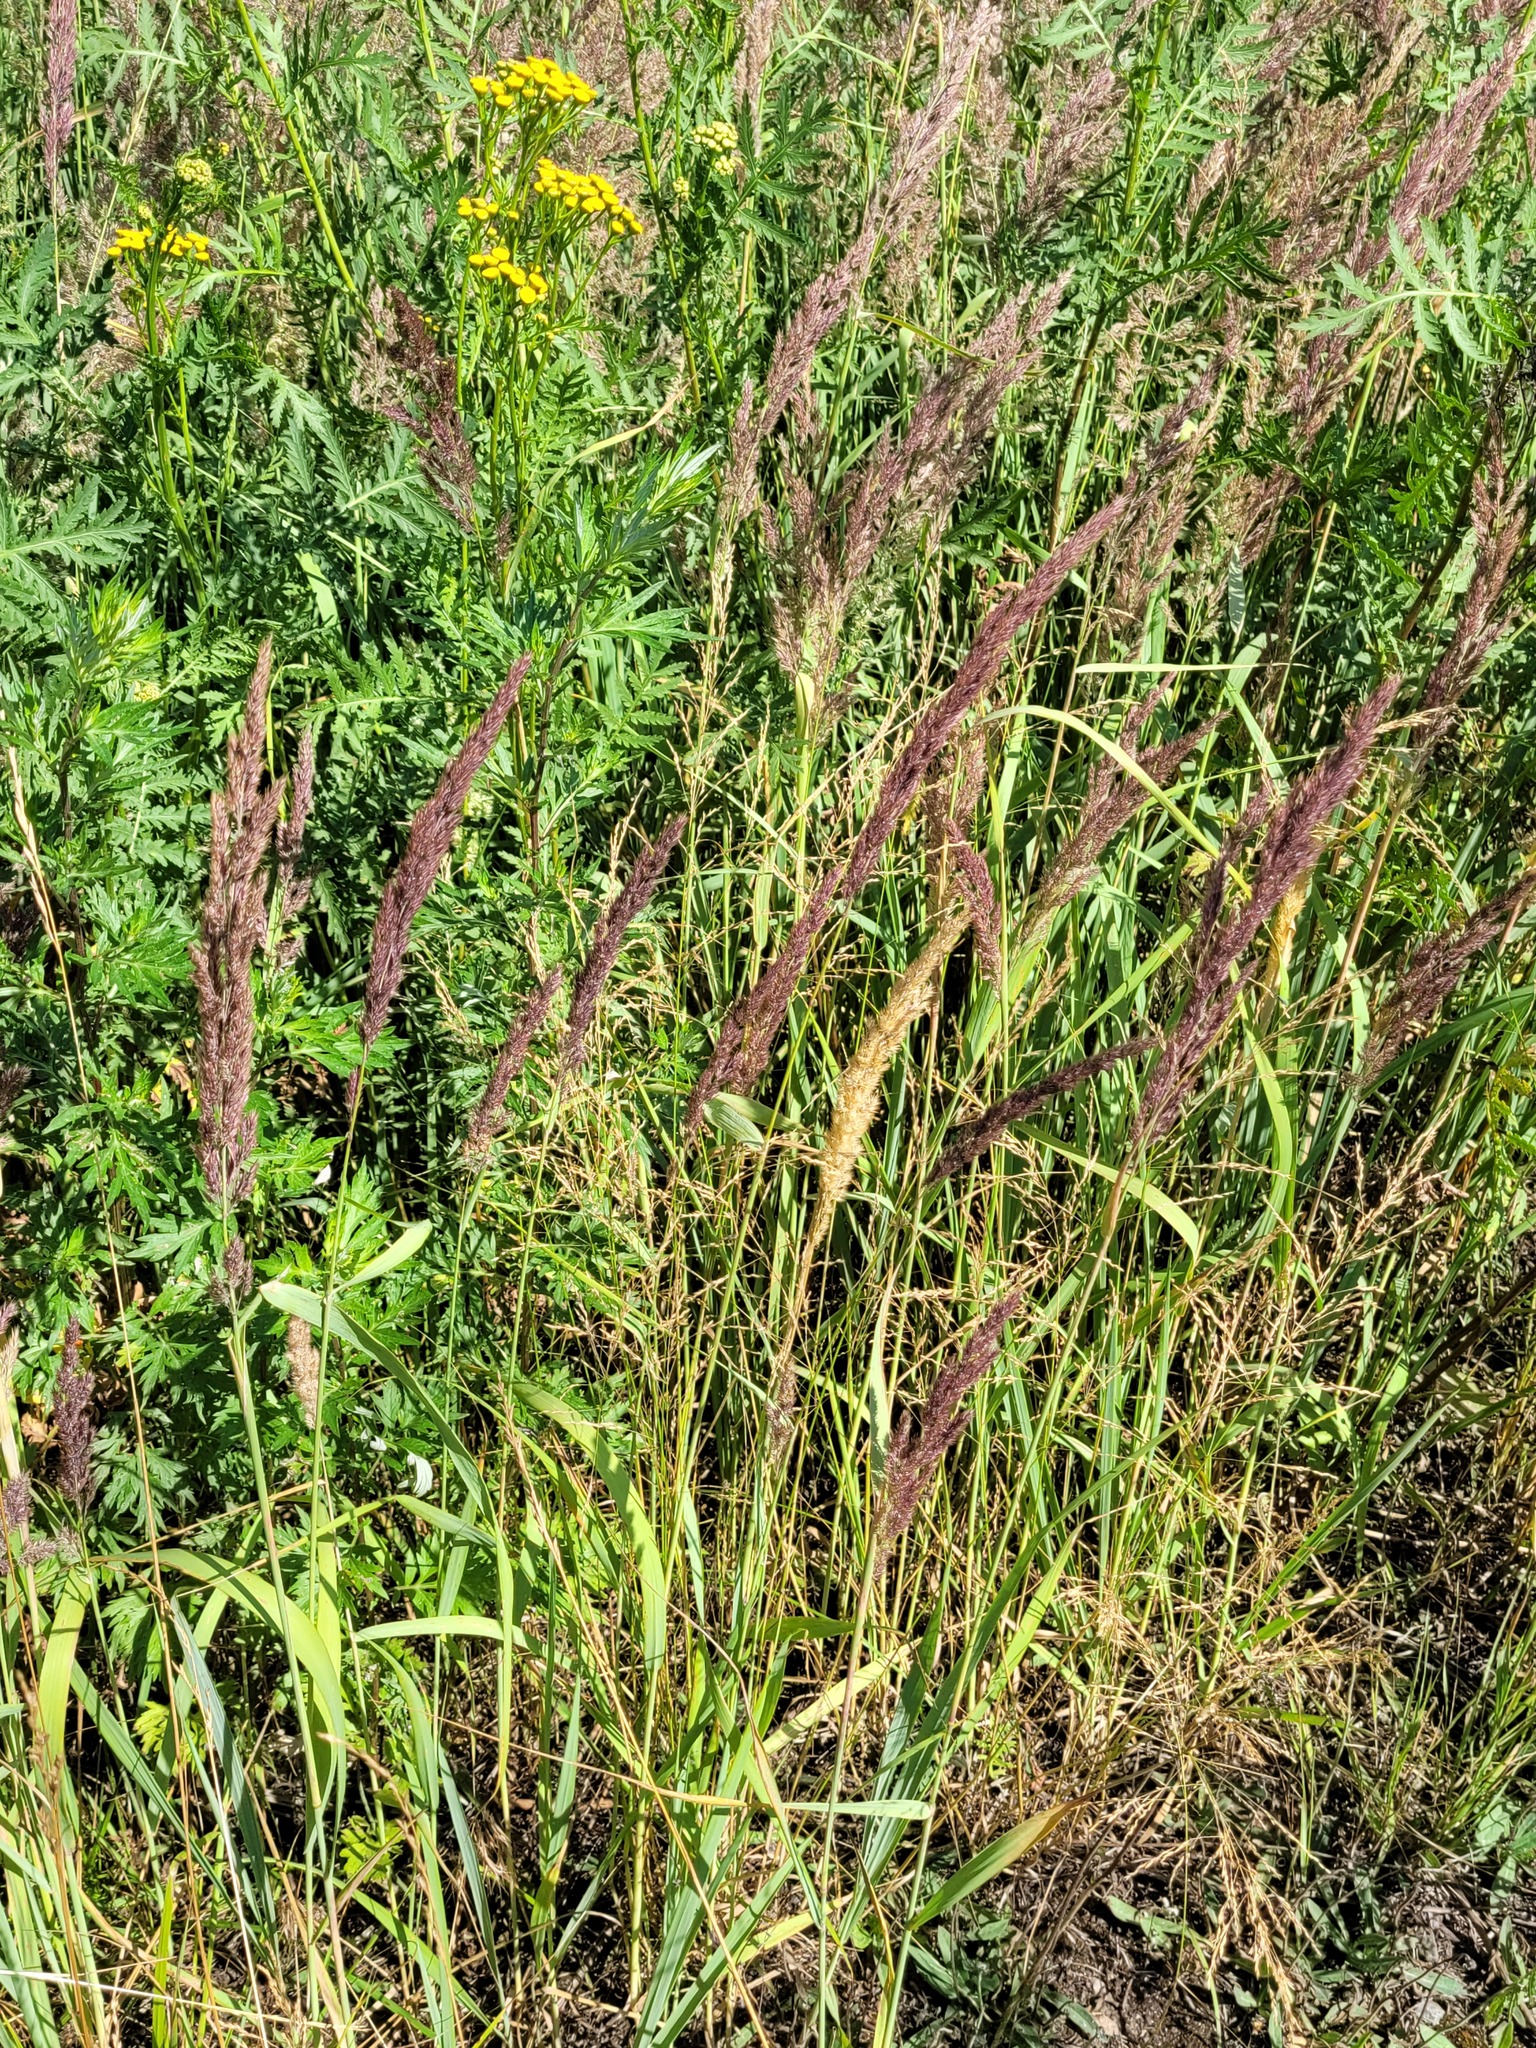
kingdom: Plantae
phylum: Tracheophyta
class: Liliopsida
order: Poales
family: Poaceae
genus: Calamagrostis
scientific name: Calamagrostis epigejos
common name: Wood small-reed
